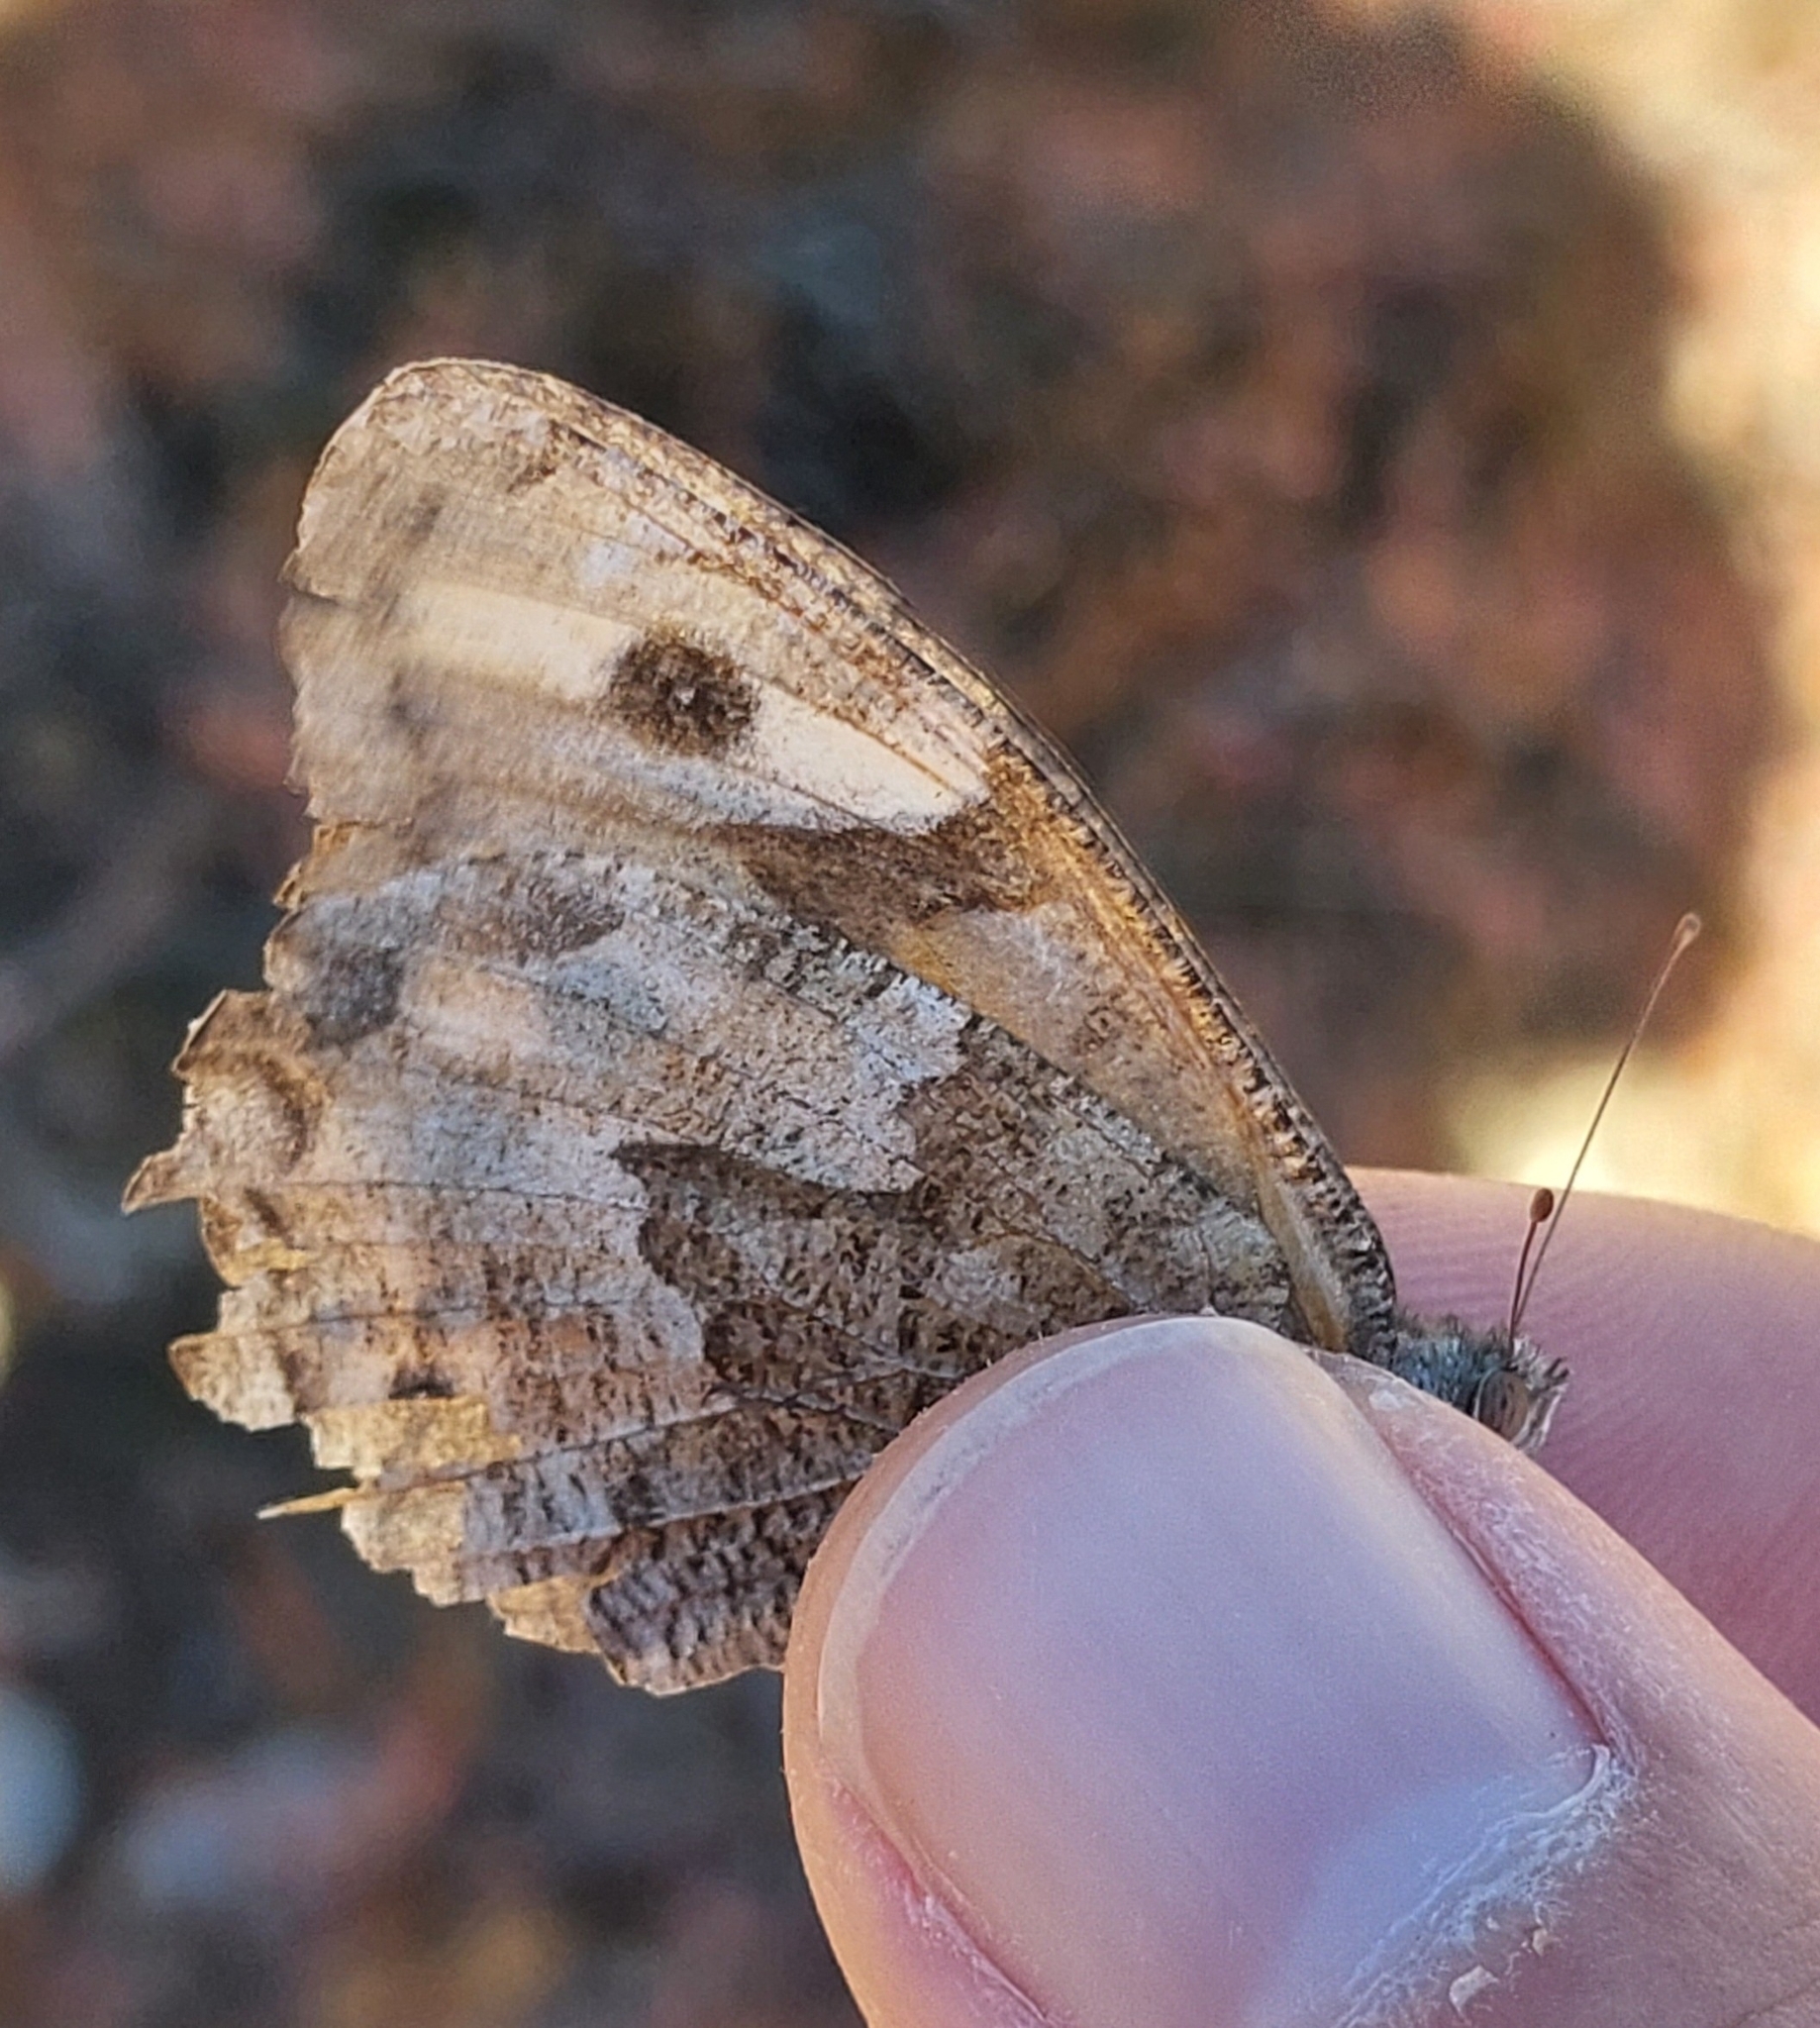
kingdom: Animalia
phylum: Arthropoda
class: Insecta
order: Lepidoptera
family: Nymphalidae
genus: Hipparchia
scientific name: Hipparchia cretica
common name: Cretan grayling
